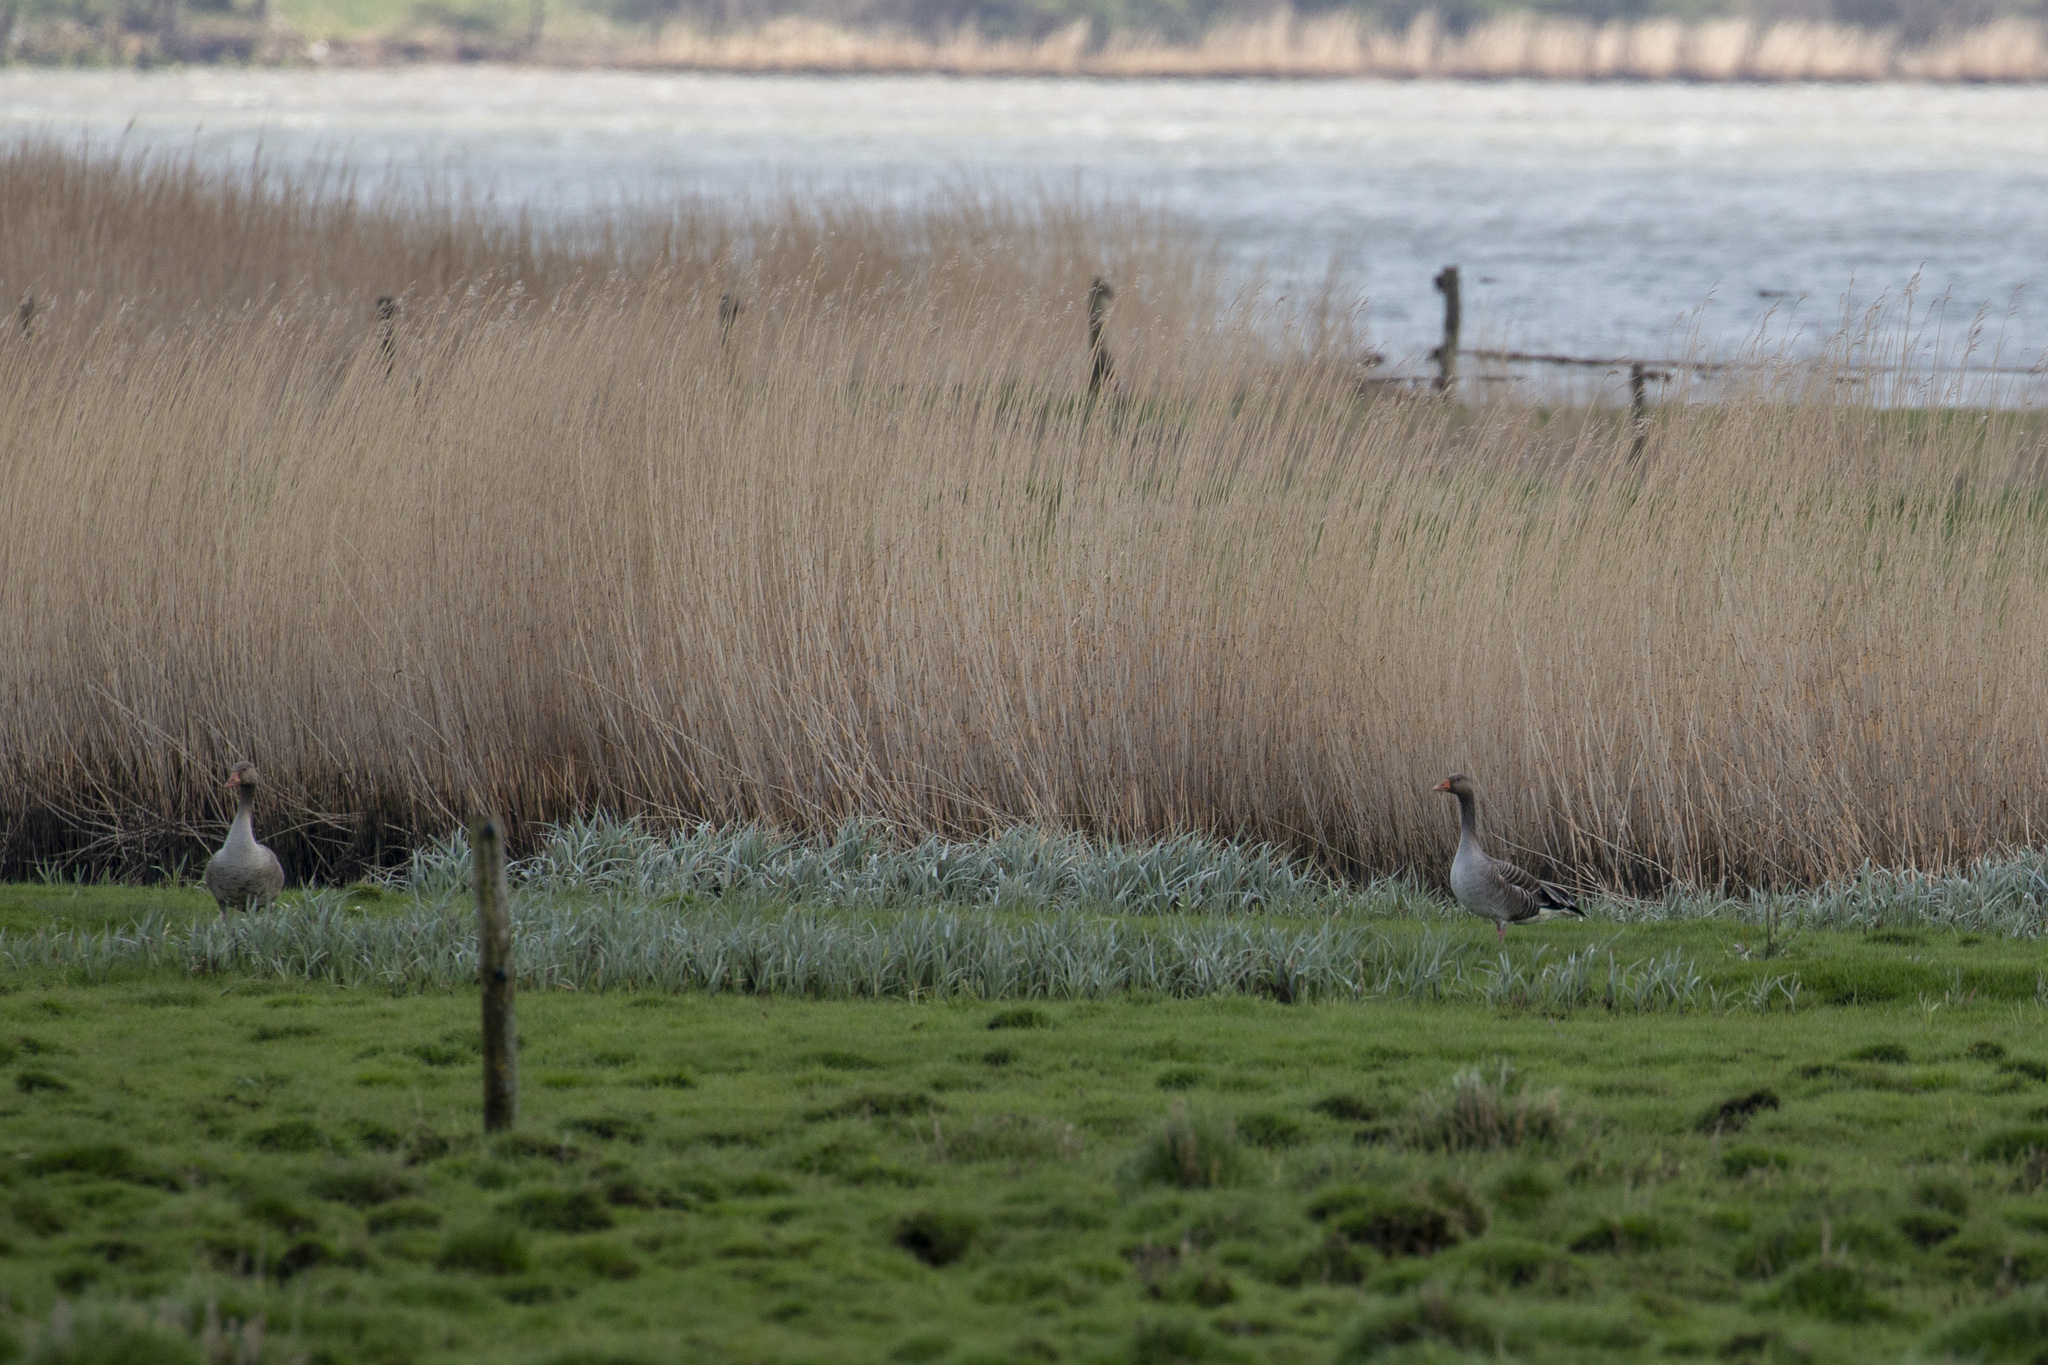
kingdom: Animalia
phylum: Chordata
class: Aves
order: Anseriformes
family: Anatidae
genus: Anser
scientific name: Anser anser
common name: Greylag goose
